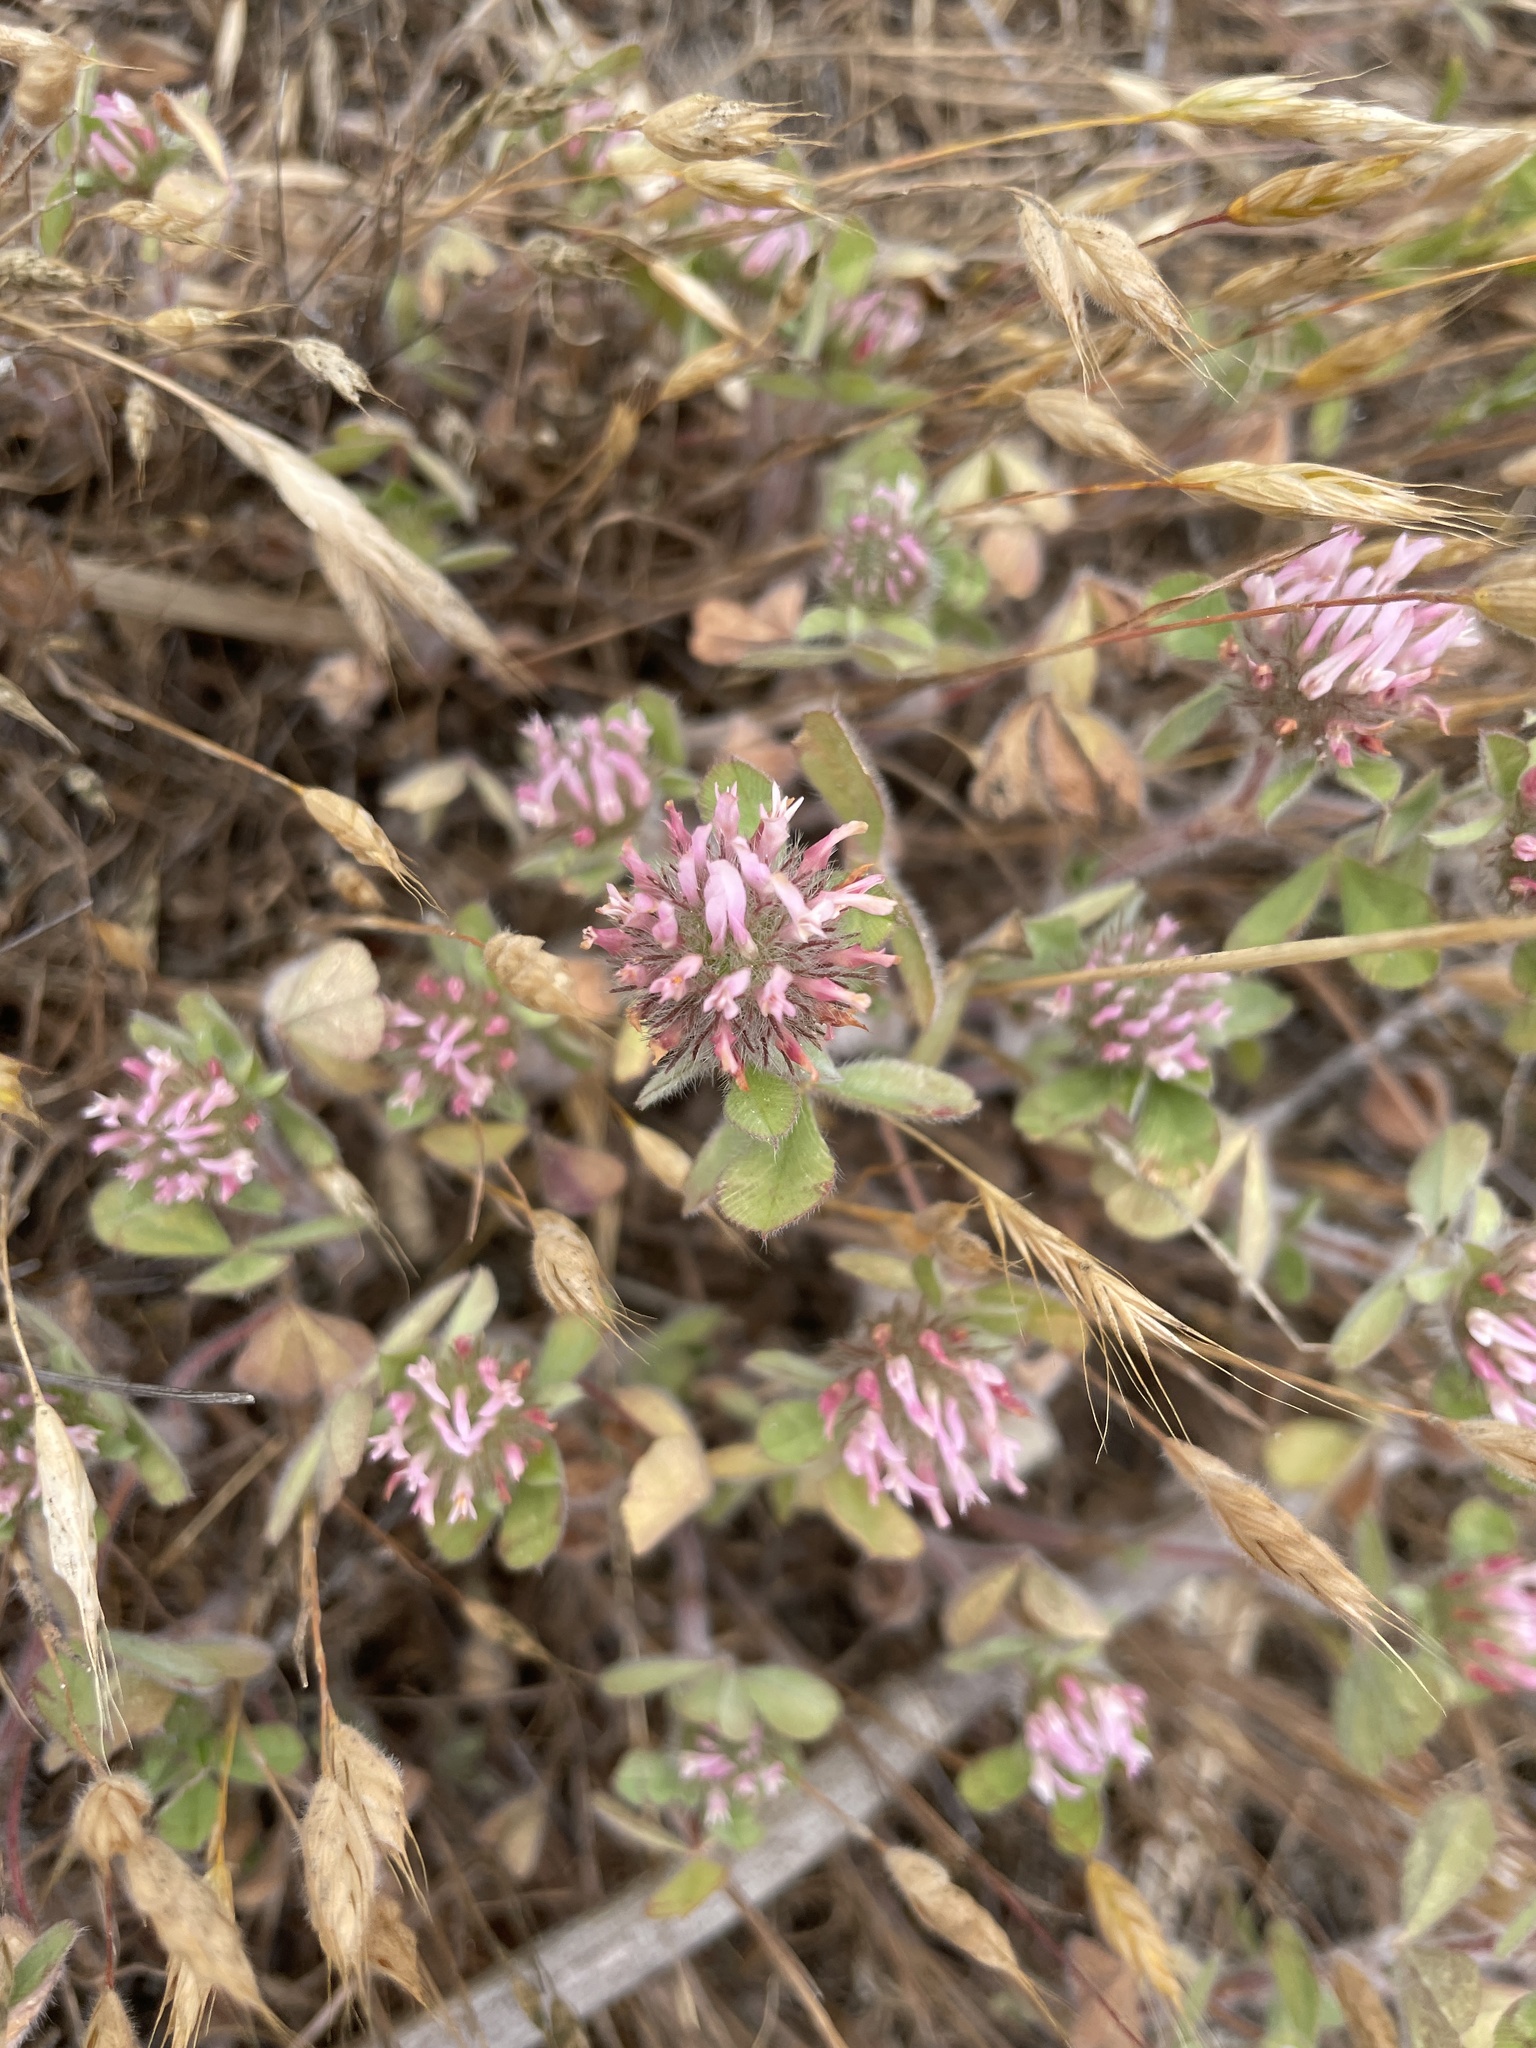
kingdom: Plantae
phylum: Tracheophyta
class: Magnoliopsida
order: Fabales
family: Fabaceae
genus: Trifolium
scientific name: Trifolium hirtum
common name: Rose clover
